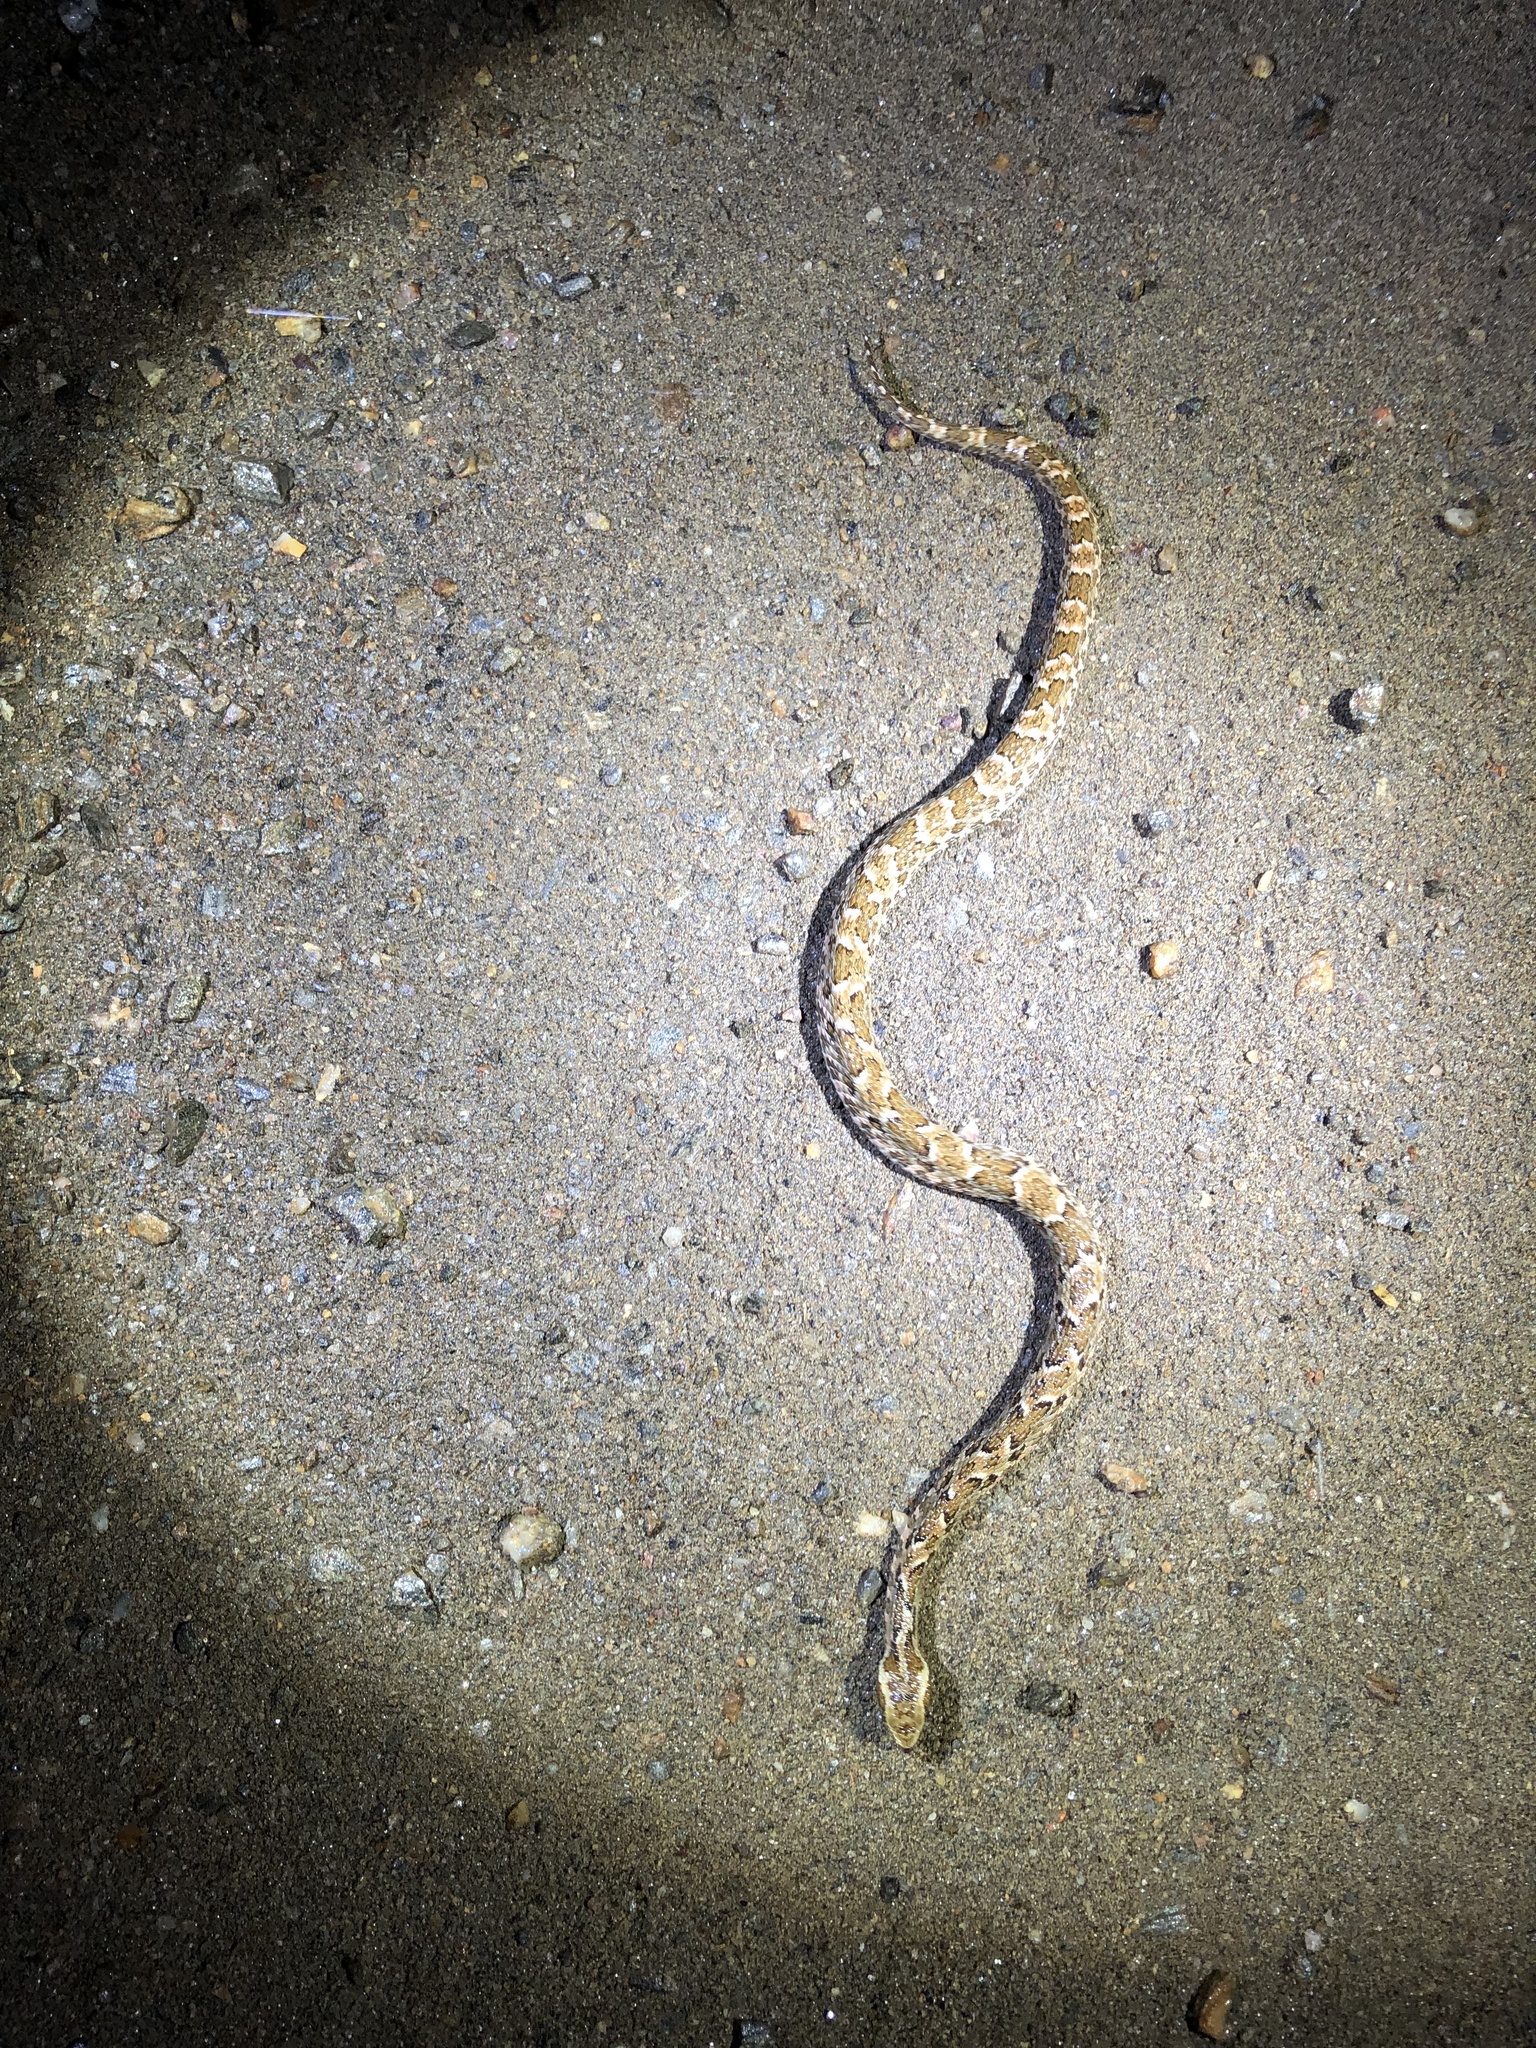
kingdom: Animalia
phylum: Chordata
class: Squamata
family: Viperidae
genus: Bothrops
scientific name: Bothrops erythromelas
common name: Caatinga lancehead
